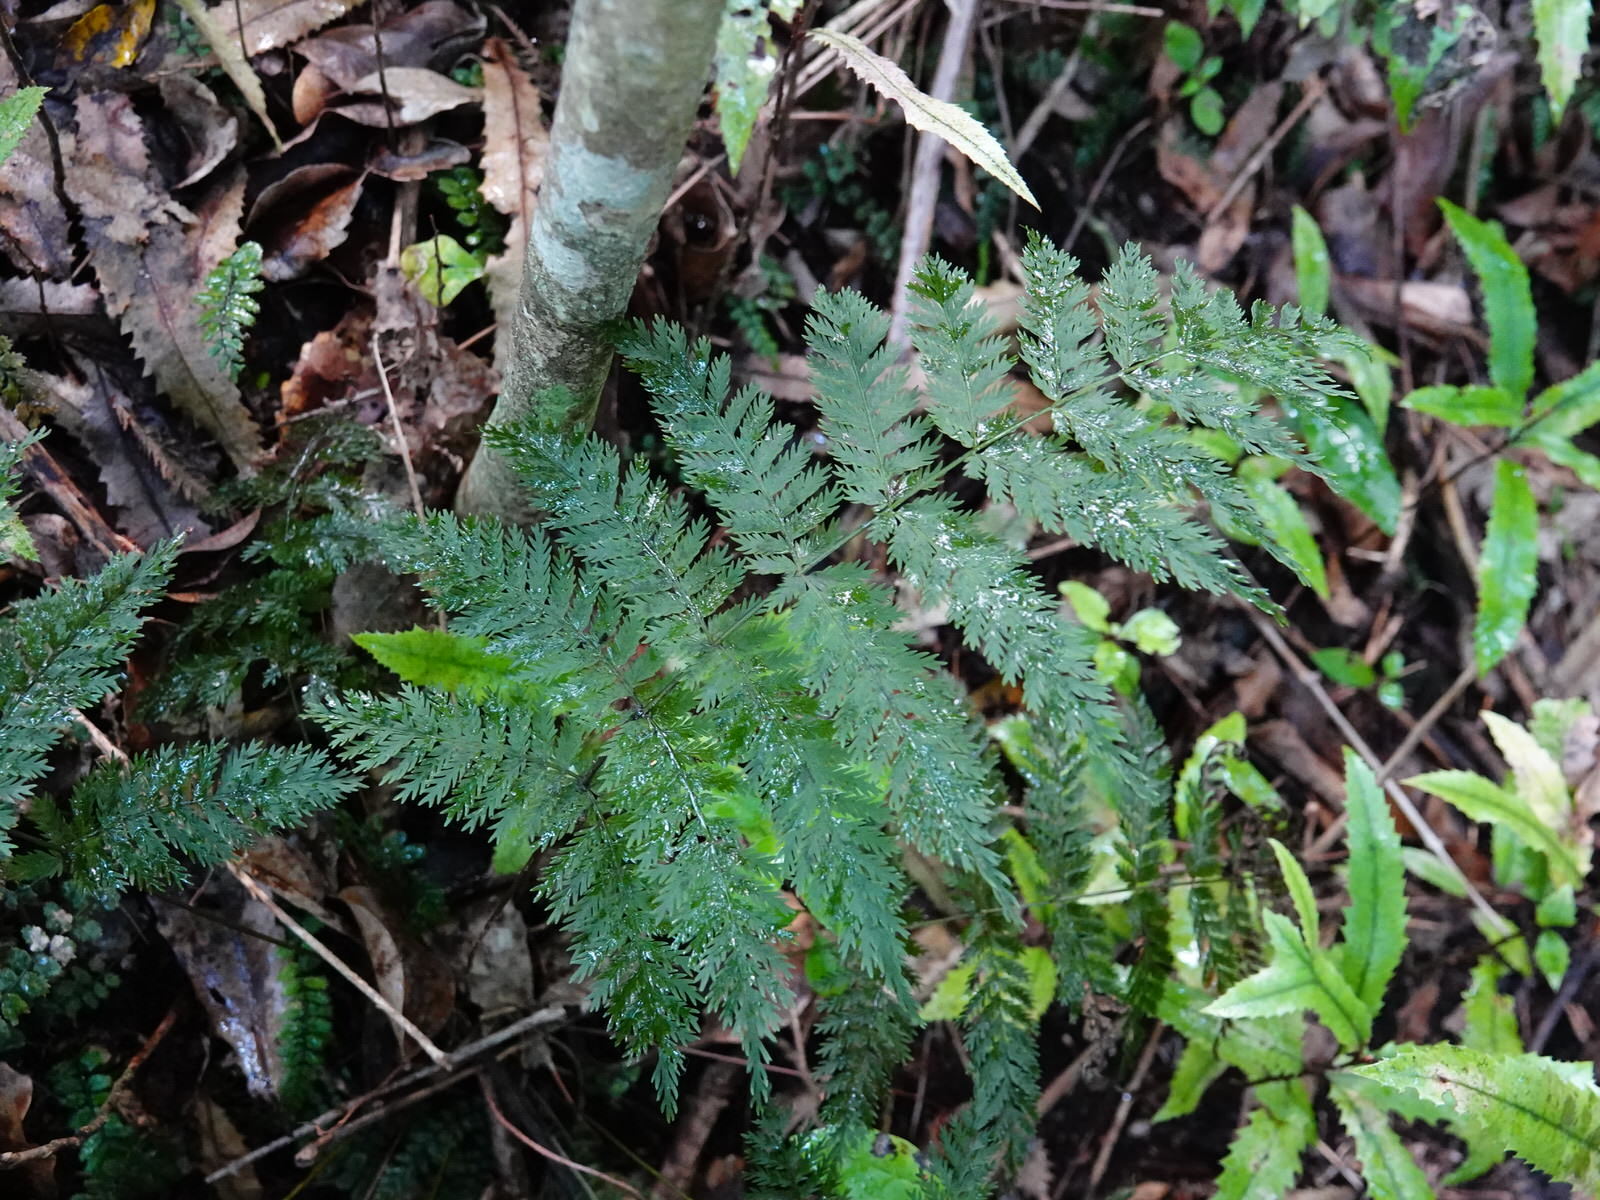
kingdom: Plantae
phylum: Tracheophyta
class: Polypodiopsida
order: Osmundales
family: Osmundaceae
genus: Leptopteris
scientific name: Leptopteris hymenophylloides
